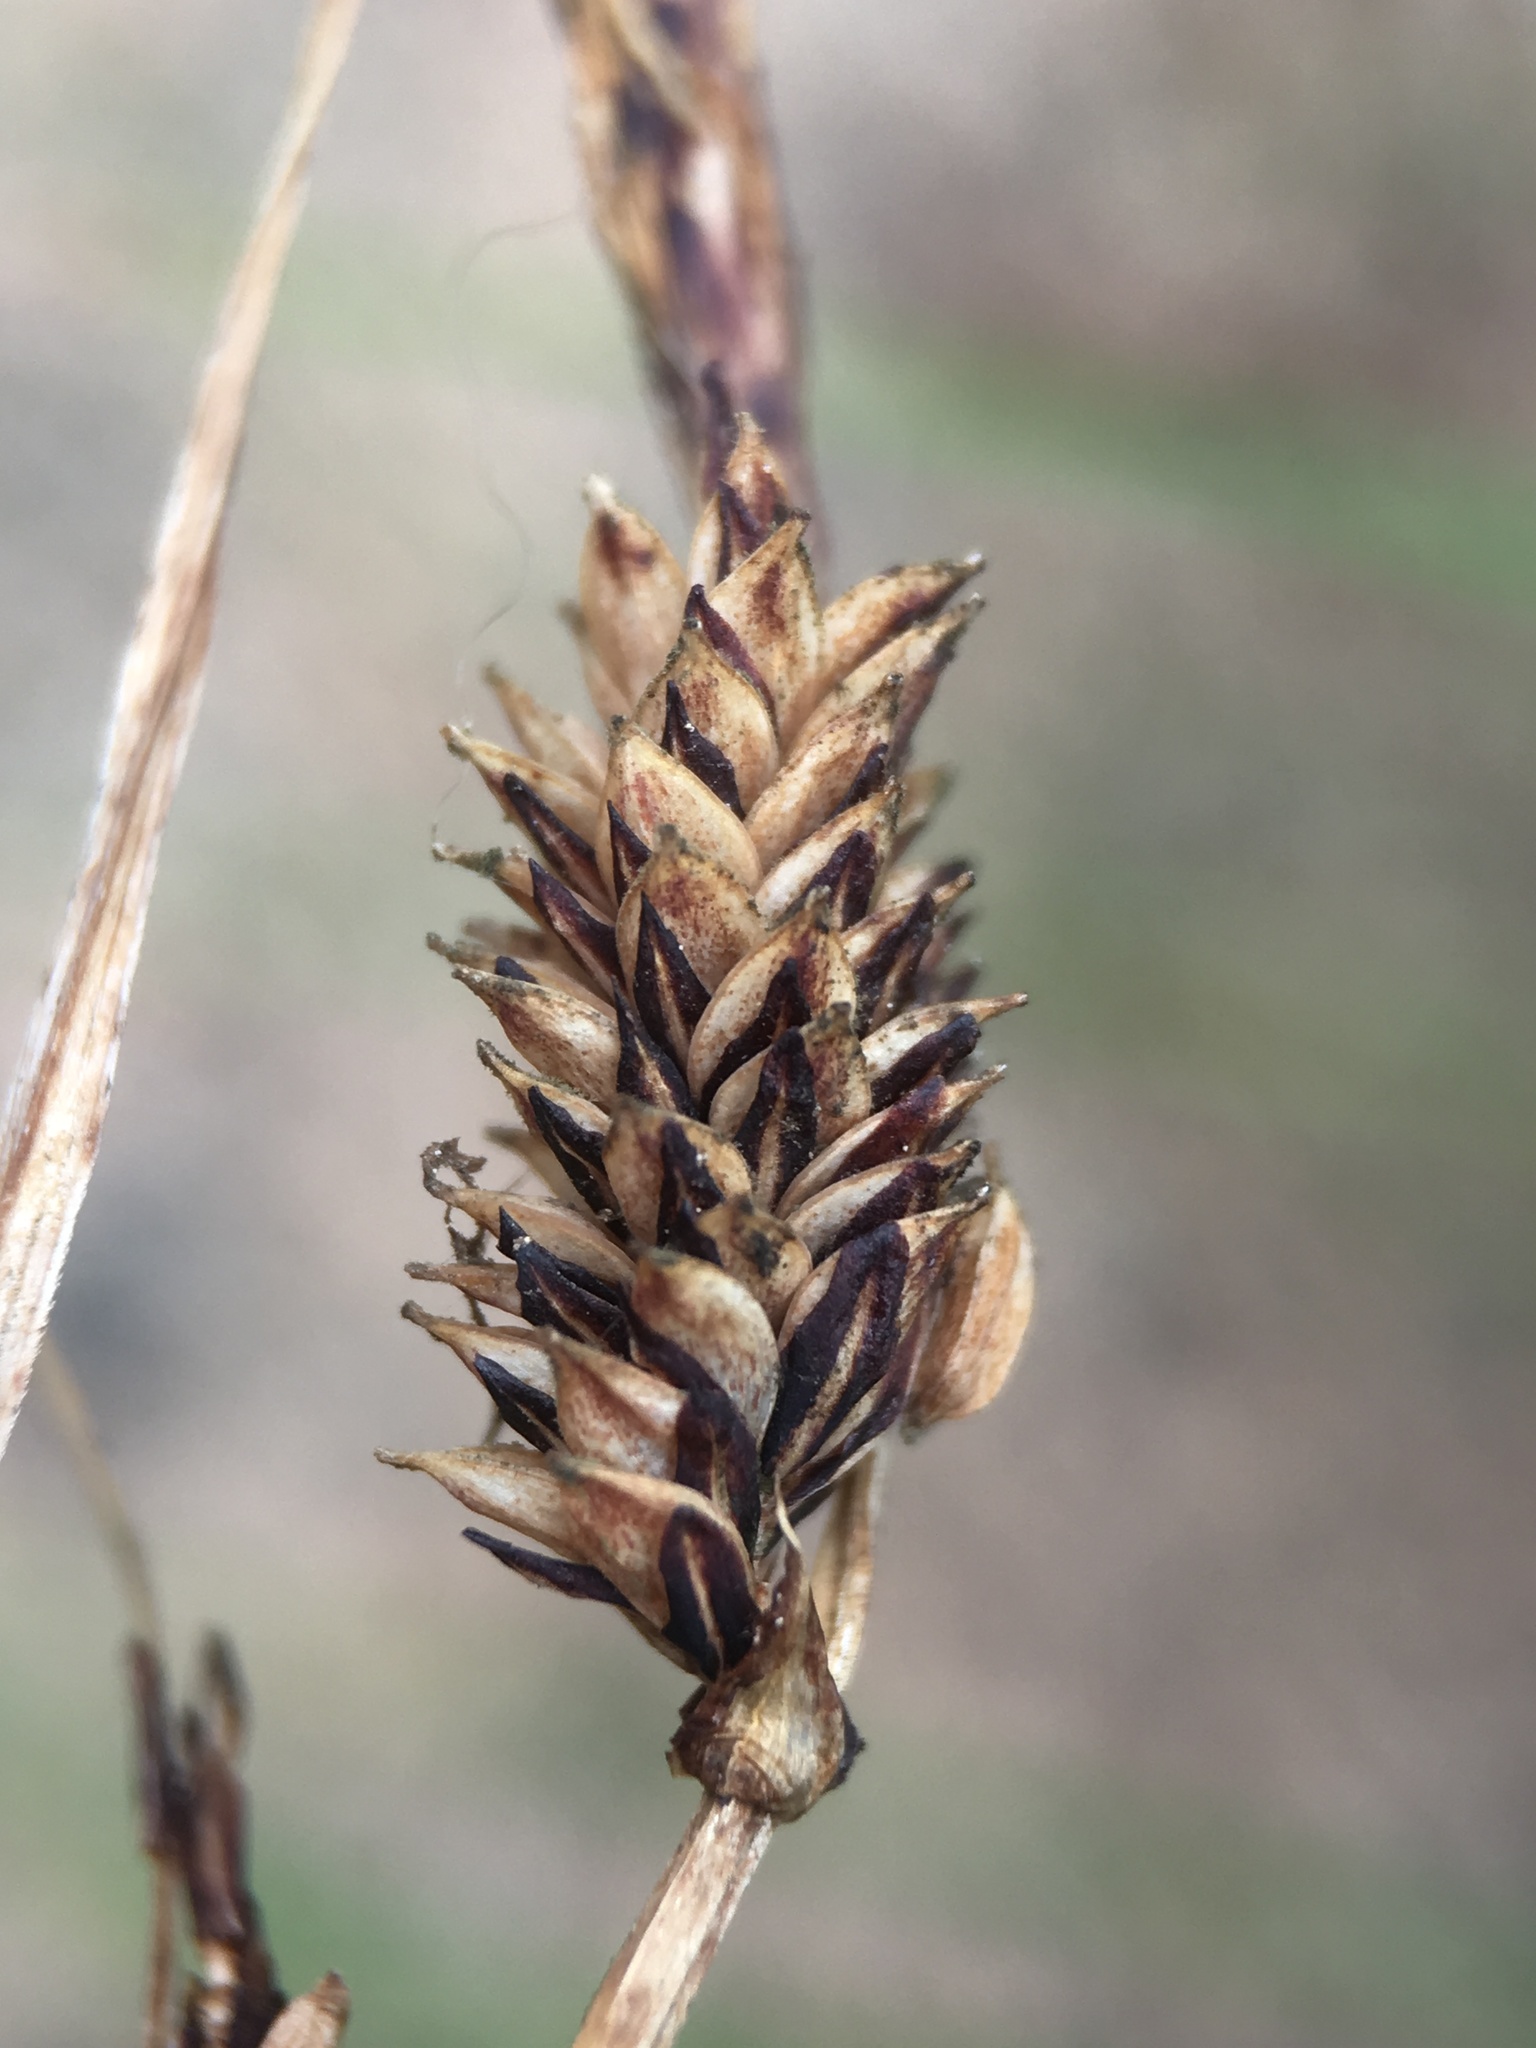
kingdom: Plantae
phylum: Tracheophyta
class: Liliopsida
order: Poales
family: Cyperaceae
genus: Carex
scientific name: Carex nudata
